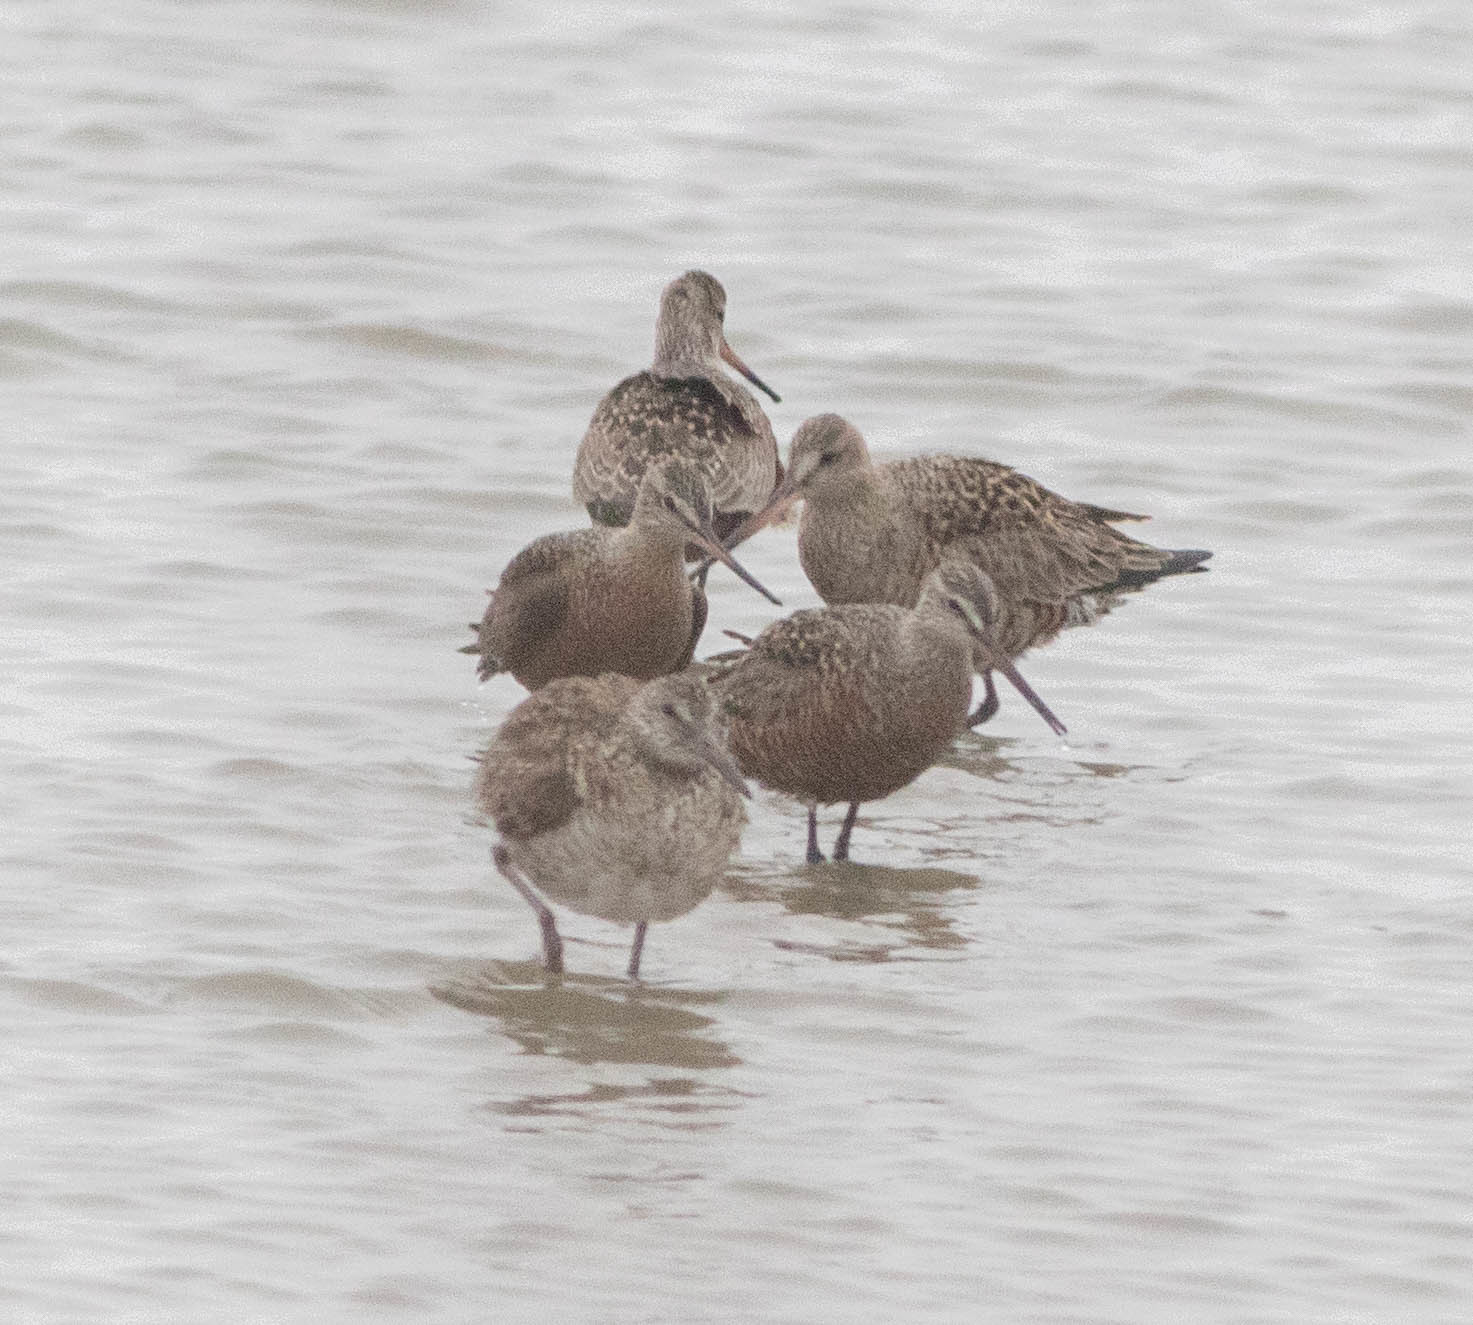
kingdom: Animalia
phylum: Chordata
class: Aves
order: Charadriiformes
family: Scolopacidae
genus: Limosa
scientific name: Limosa haemastica
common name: Hudsonian godwit
